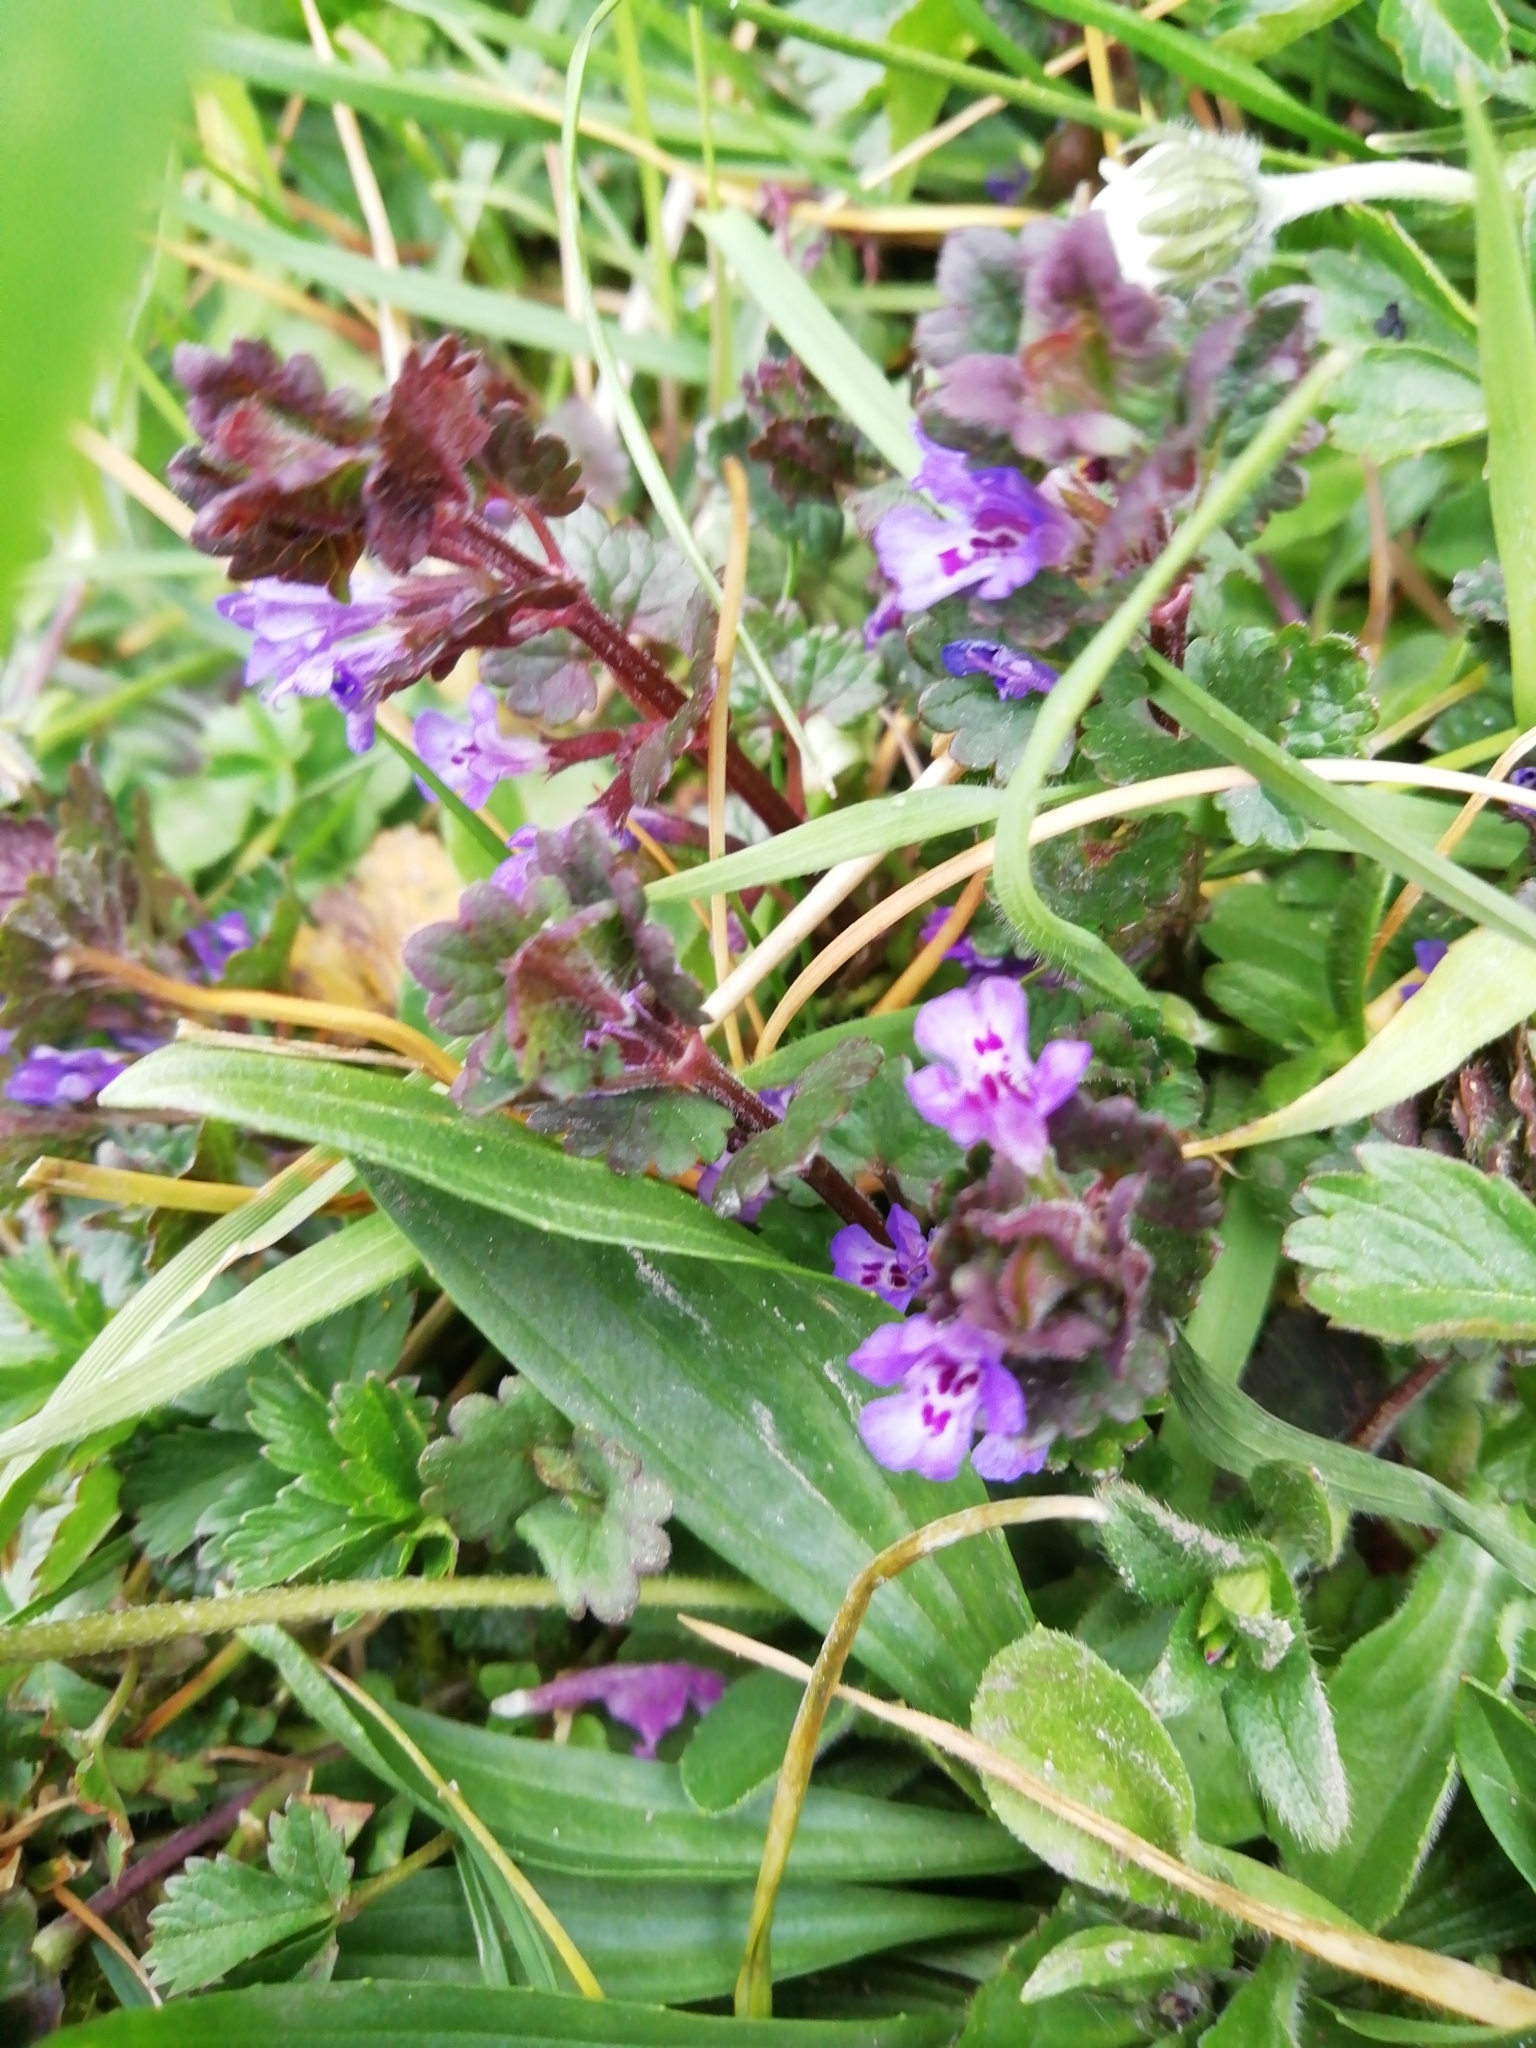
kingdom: Plantae
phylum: Tracheophyta
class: Magnoliopsida
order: Lamiales
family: Lamiaceae
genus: Glechoma
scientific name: Glechoma hederacea
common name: Ground ivy
